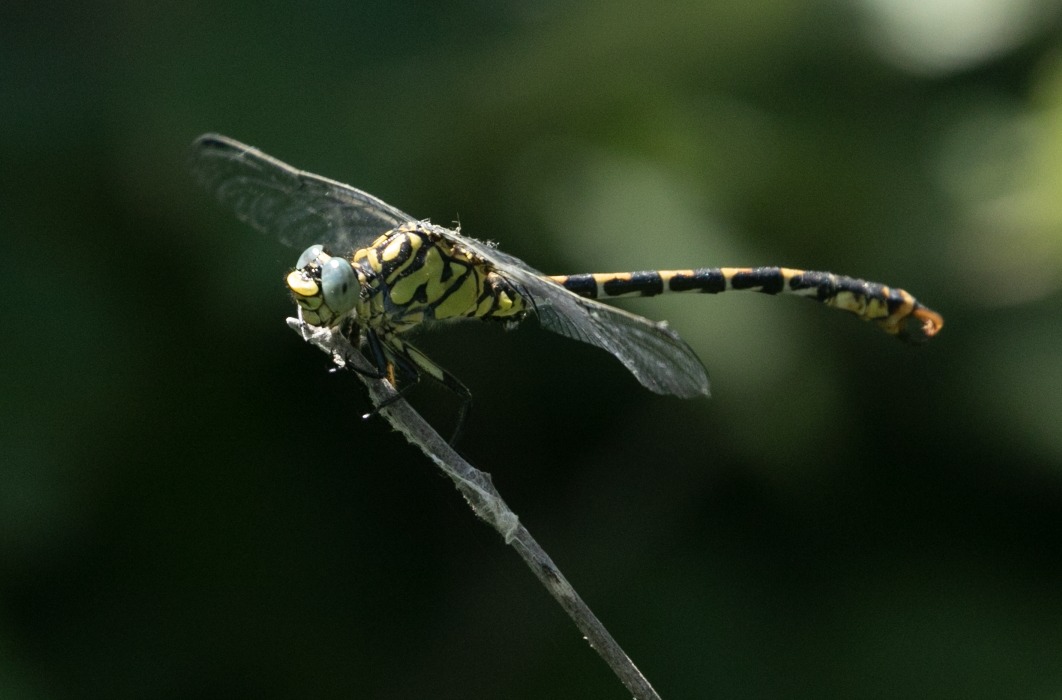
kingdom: Animalia
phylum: Arthropoda
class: Insecta
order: Odonata
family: Gomphidae
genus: Onychogomphus
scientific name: Onychogomphus forcipatus
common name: Small pincertail
